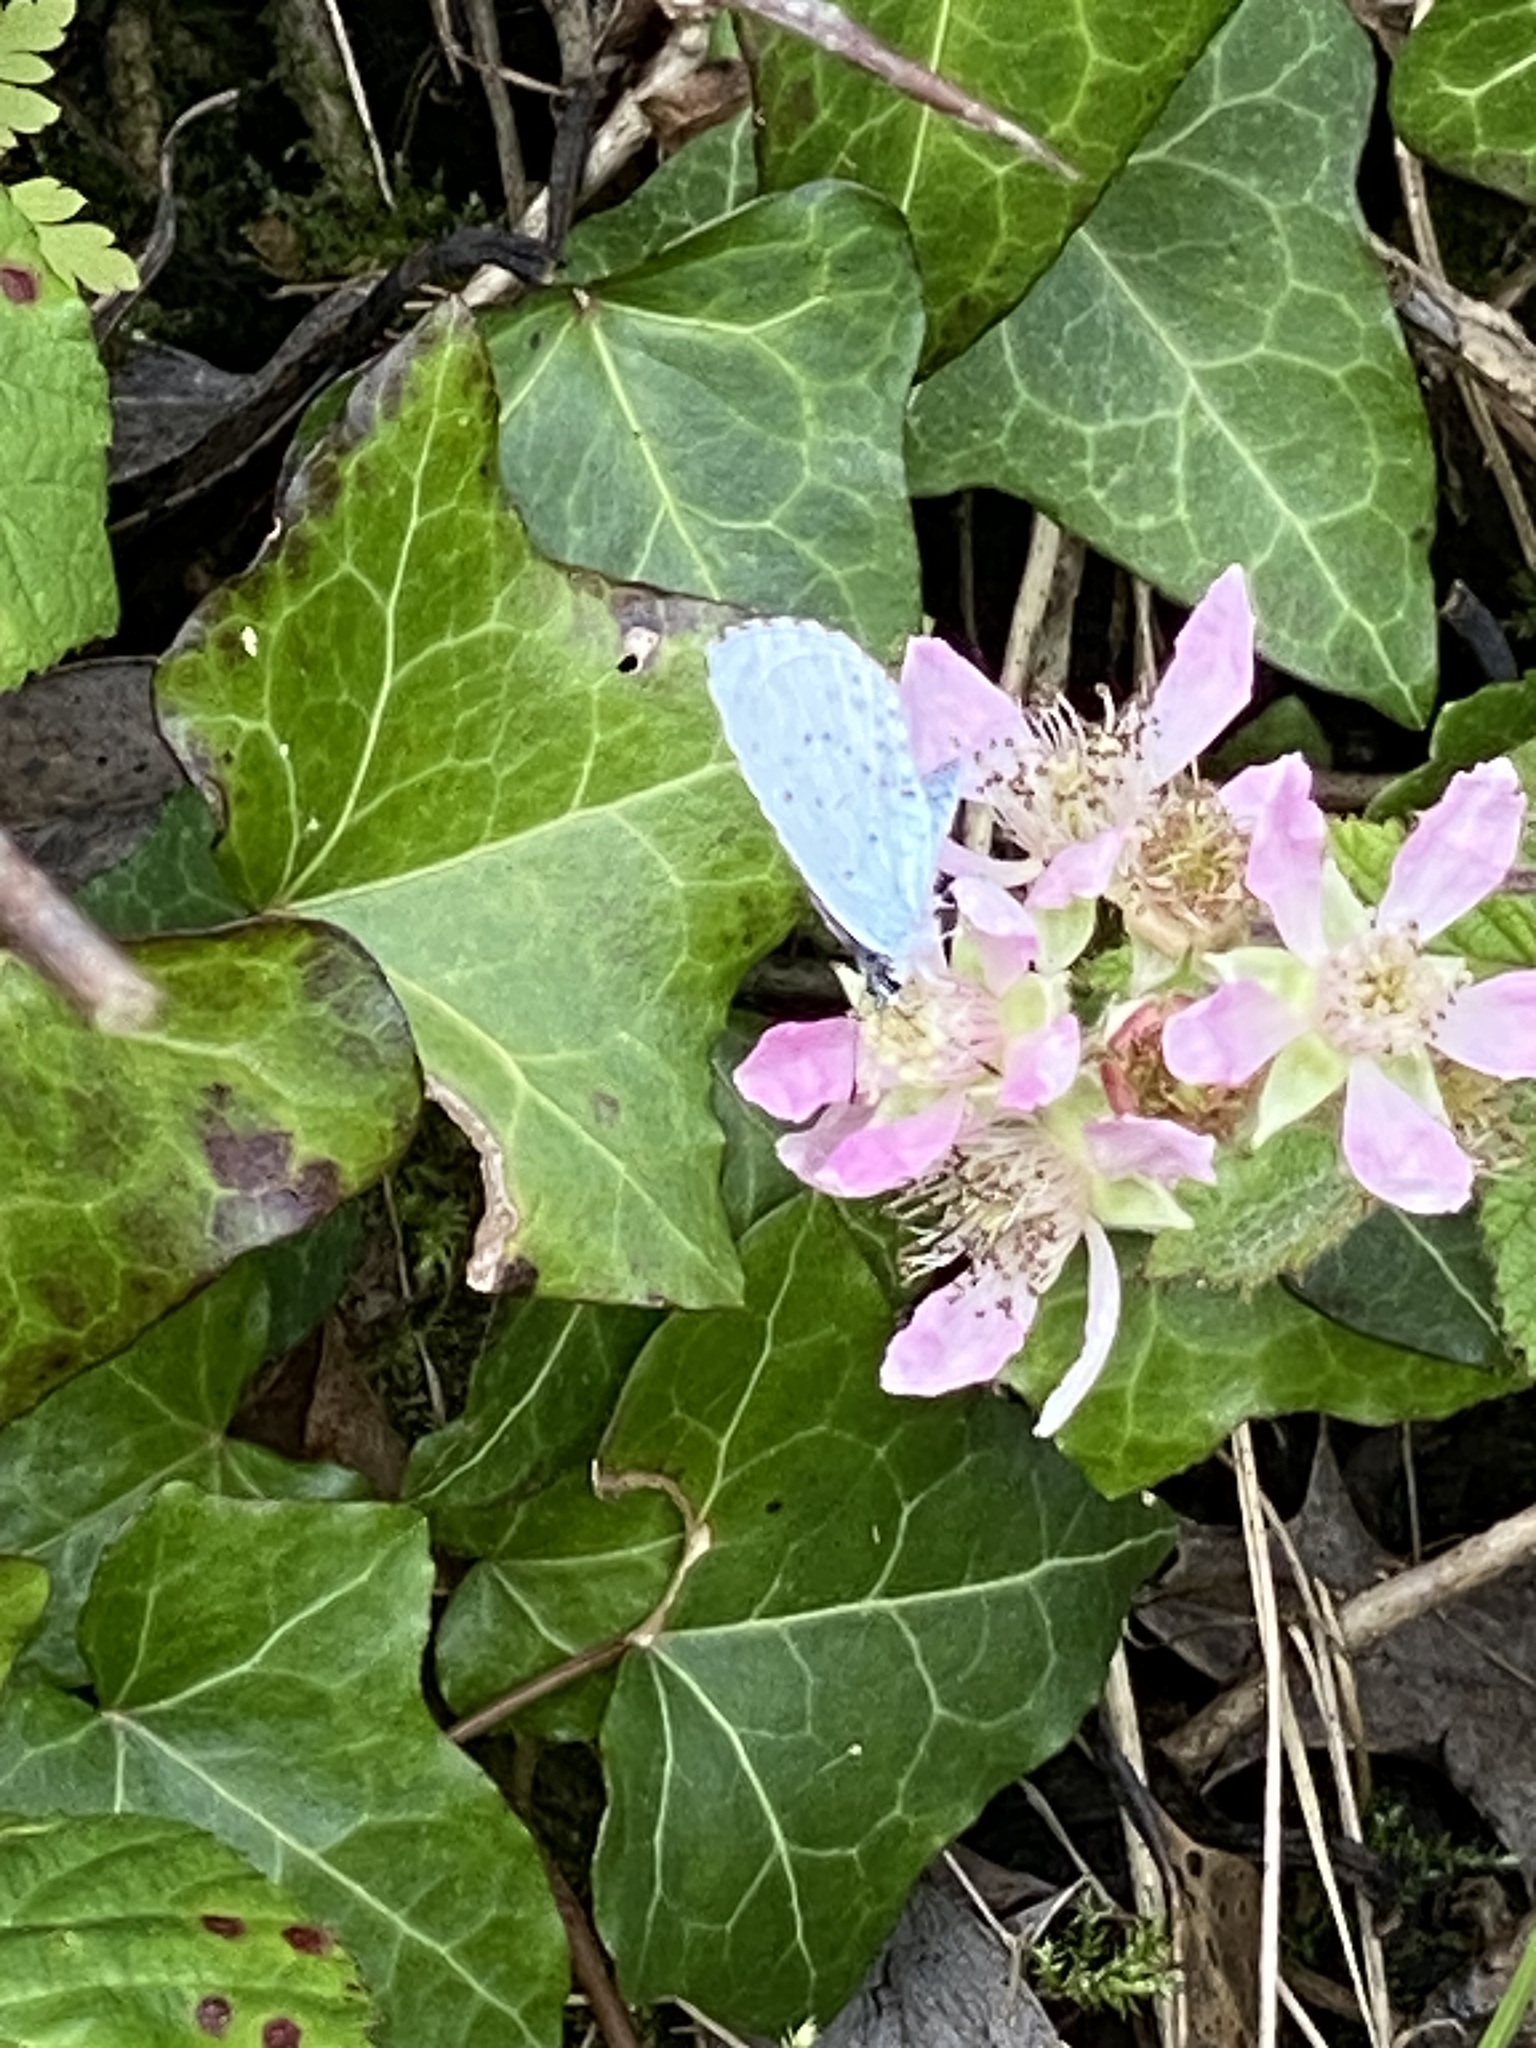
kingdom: Animalia
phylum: Arthropoda
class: Insecta
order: Lepidoptera
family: Lycaenidae
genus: Celastrina
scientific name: Celastrina argiolus
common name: Holly blue
